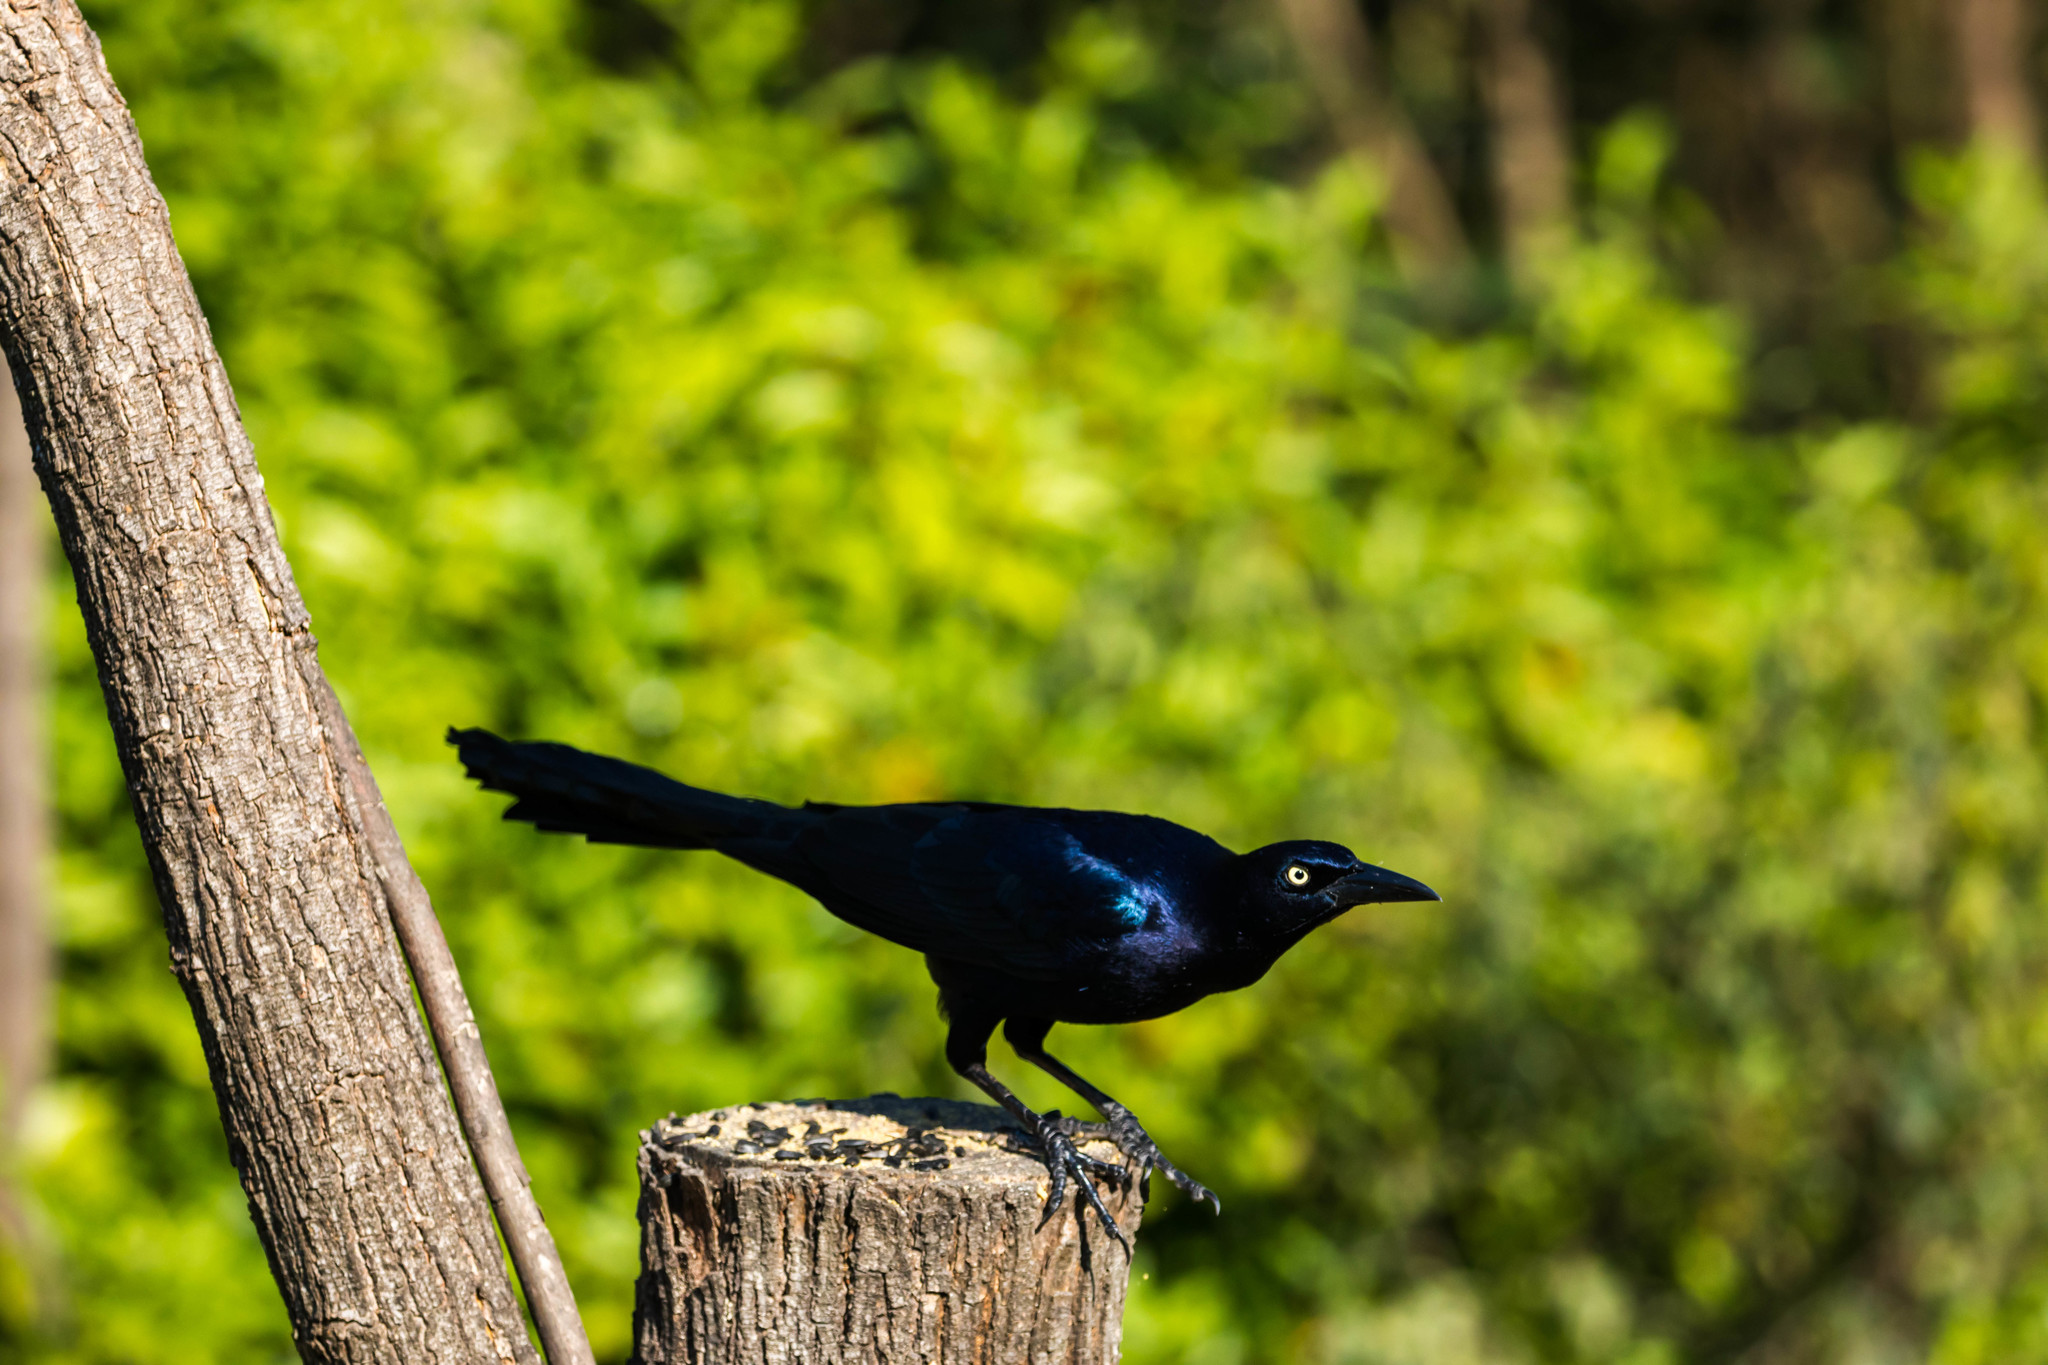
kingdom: Animalia
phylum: Chordata
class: Aves
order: Passeriformes
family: Icteridae
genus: Quiscalus
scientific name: Quiscalus mexicanus
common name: Great-tailed grackle
